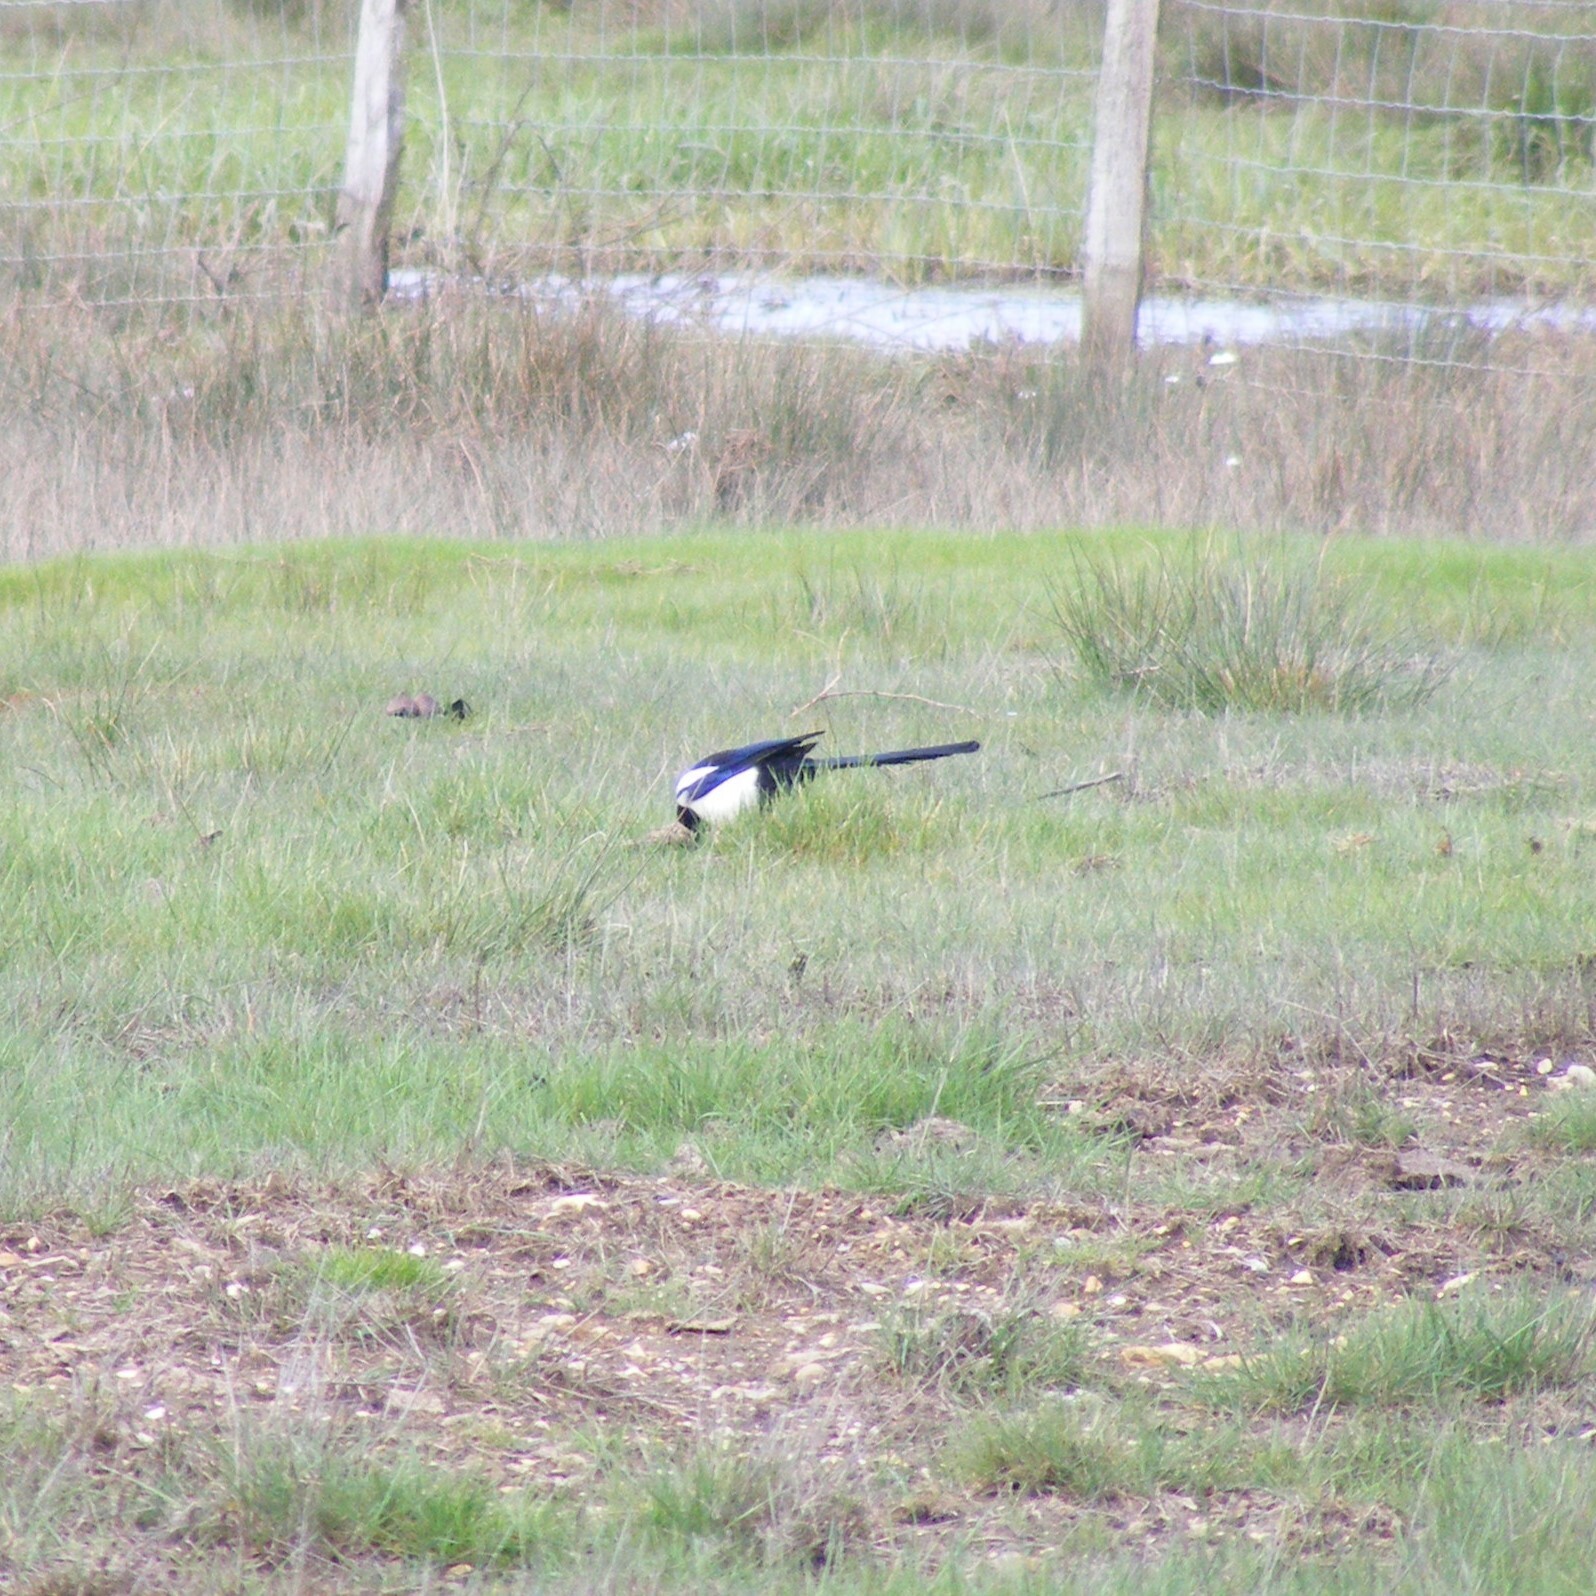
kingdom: Animalia
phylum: Chordata
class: Aves
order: Passeriformes
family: Corvidae
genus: Pica
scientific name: Pica pica
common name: Eurasian magpie
